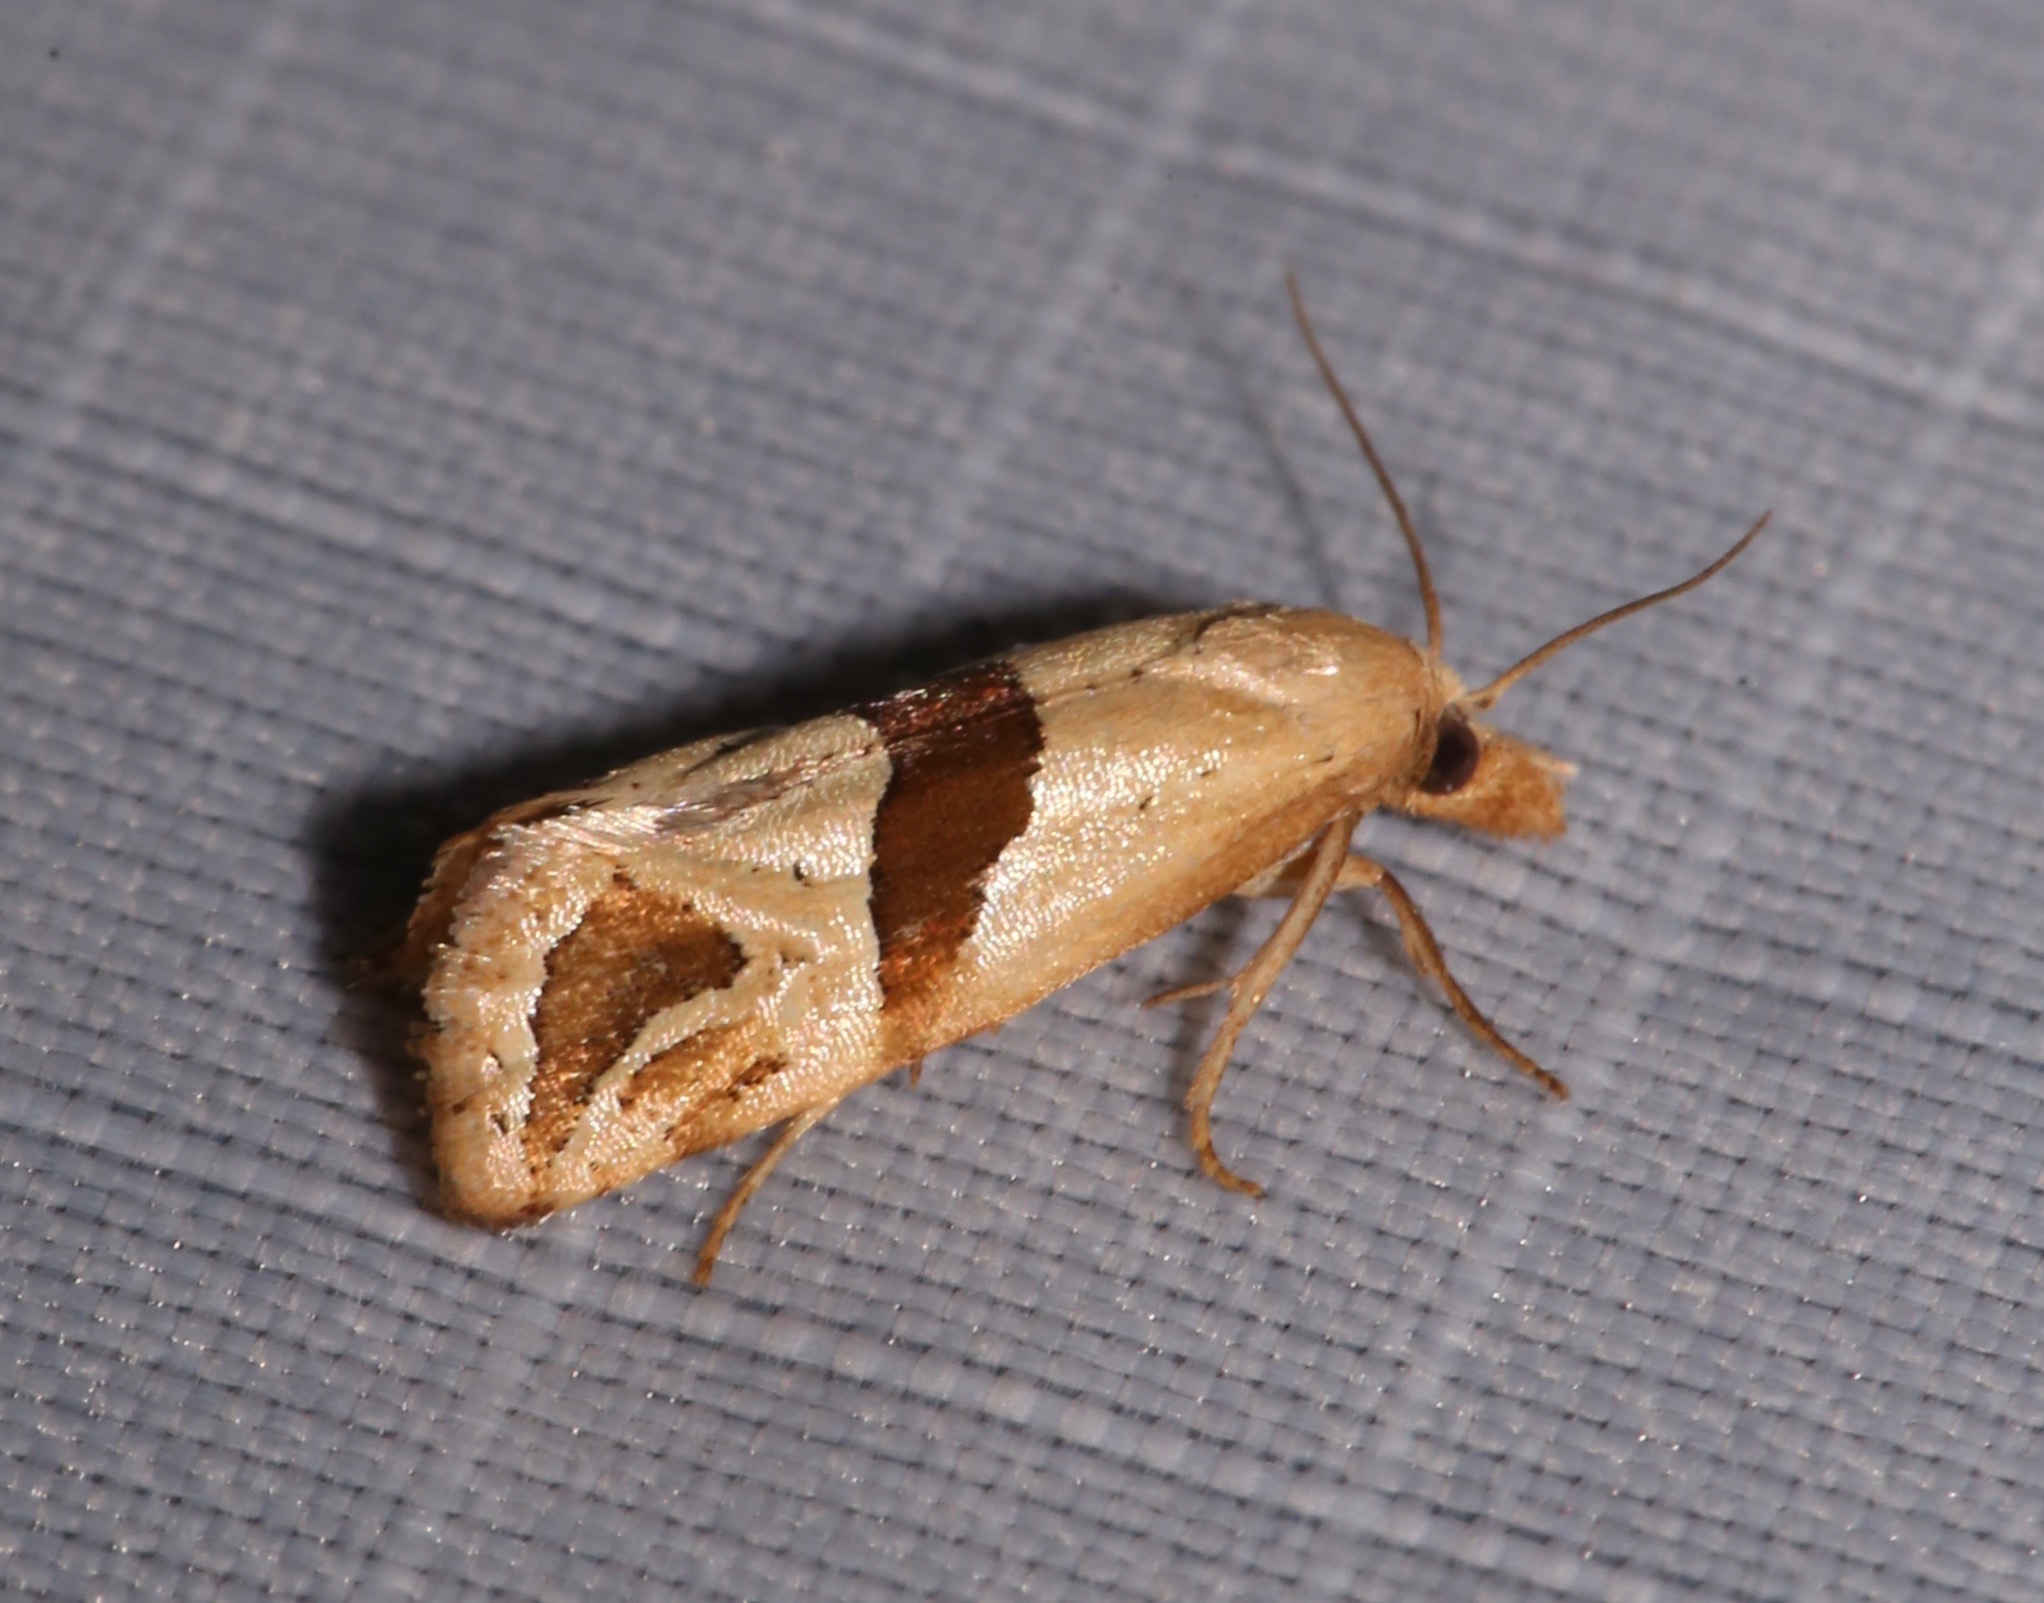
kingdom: Animalia
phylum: Arthropoda
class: Insecta
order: Lepidoptera
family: Tortricidae
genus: Eugnosta
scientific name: Eugnosta sartana
